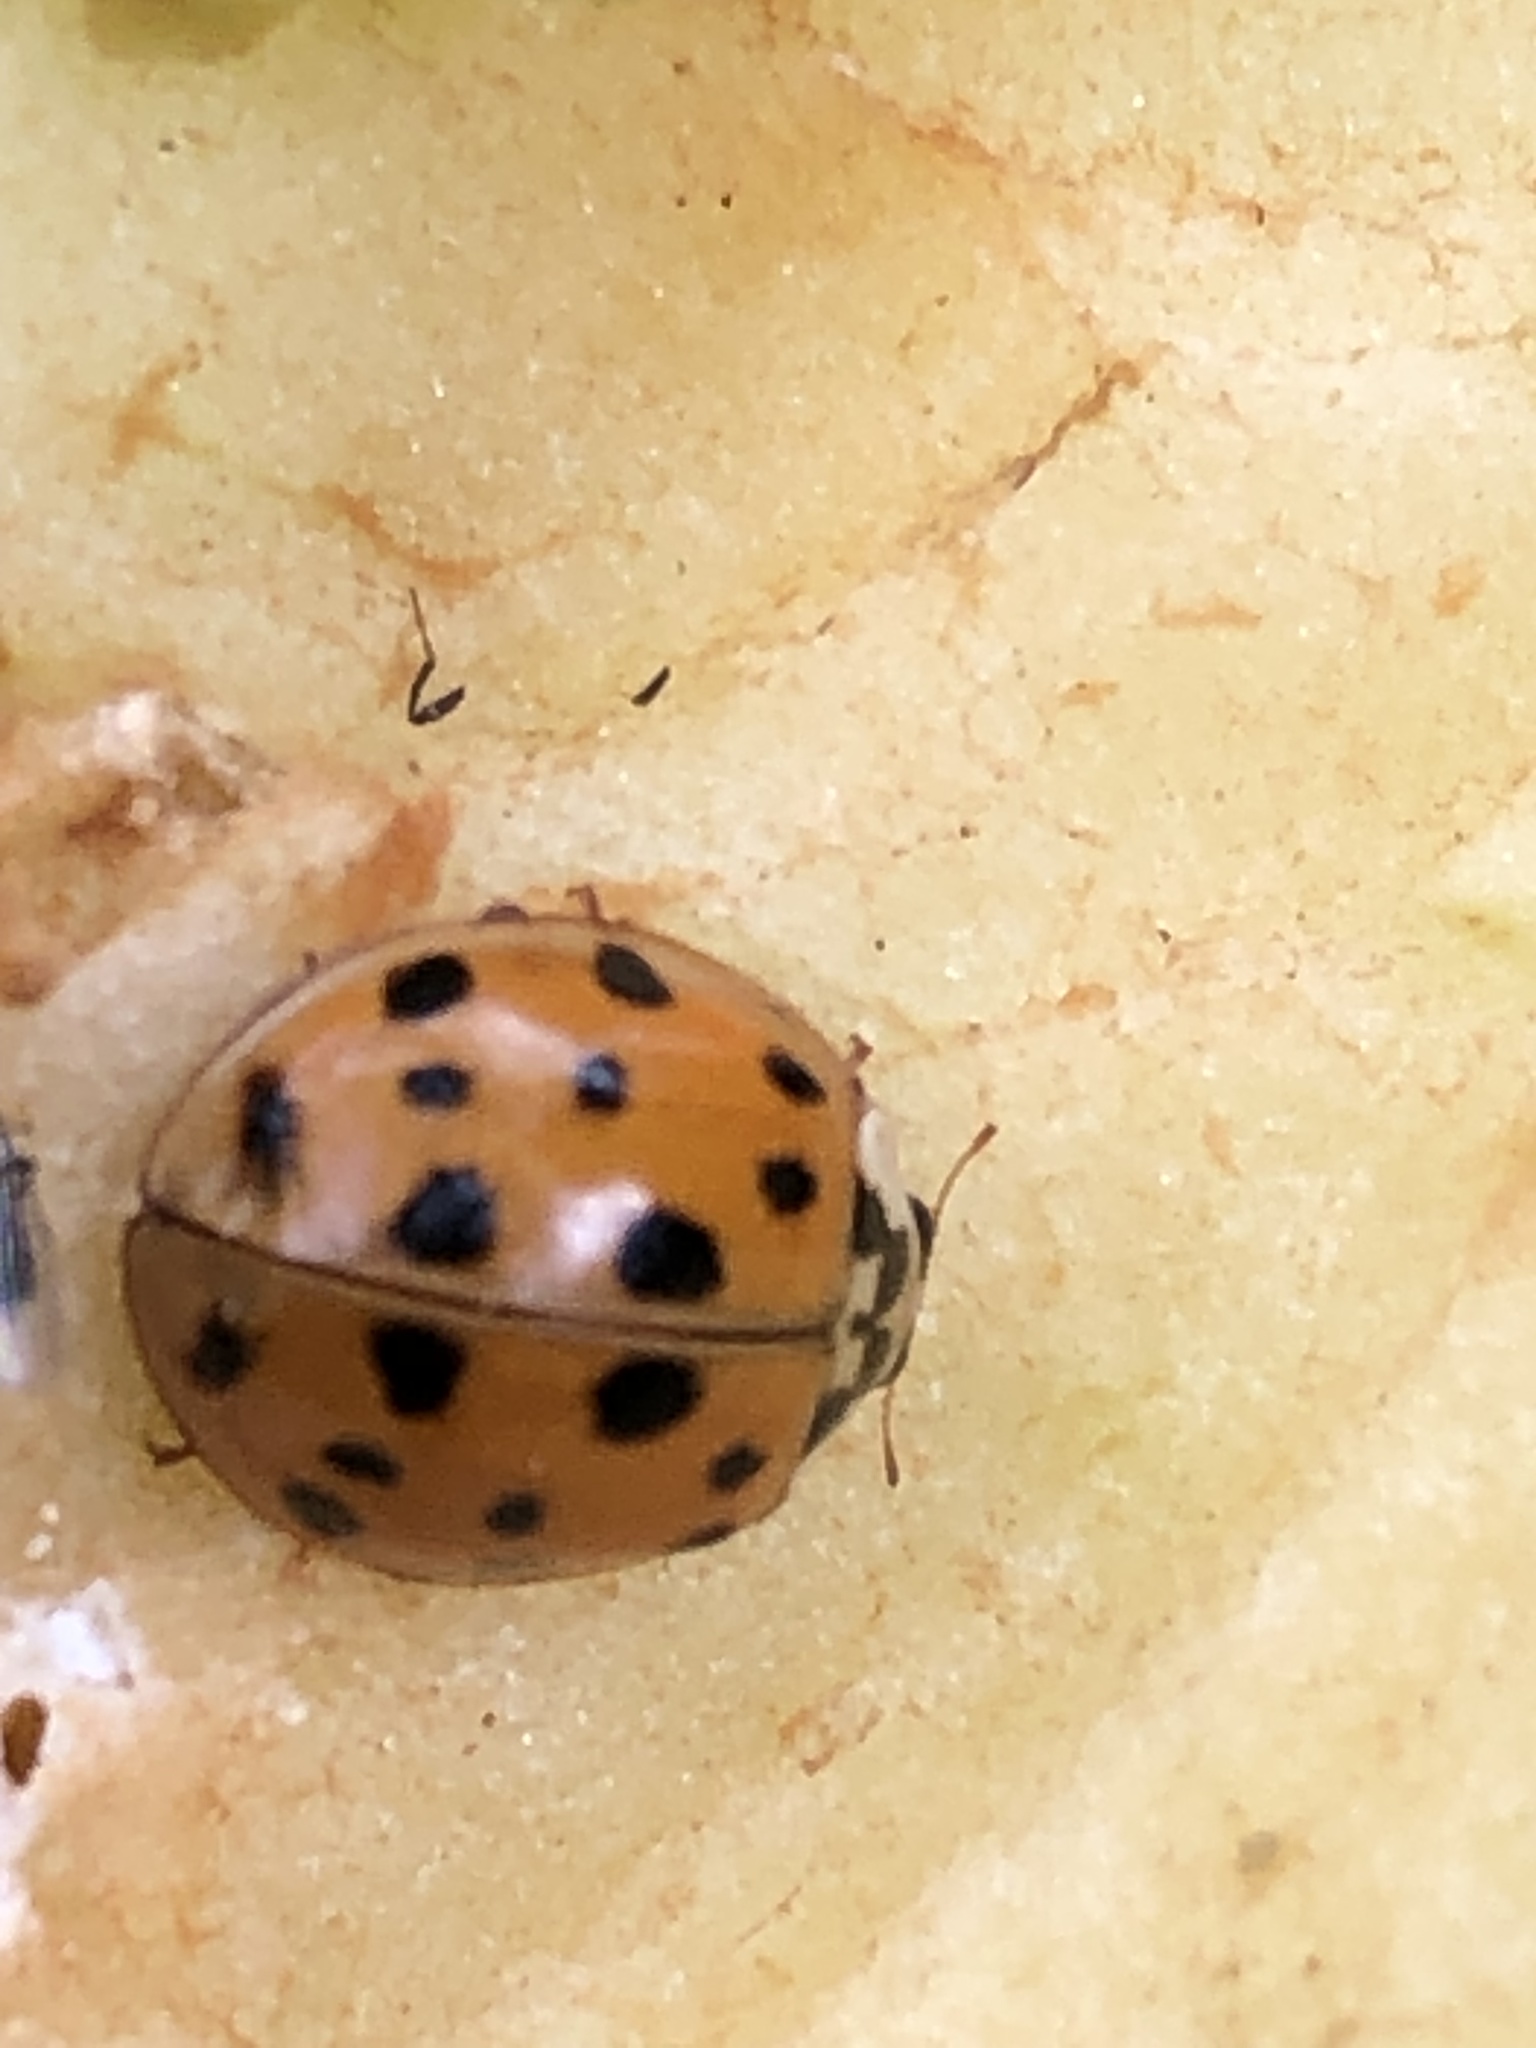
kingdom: Animalia
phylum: Arthropoda
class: Insecta
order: Coleoptera
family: Coccinellidae
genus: Harmonia
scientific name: Harmonia axyridis
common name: Harlequin ladybird
